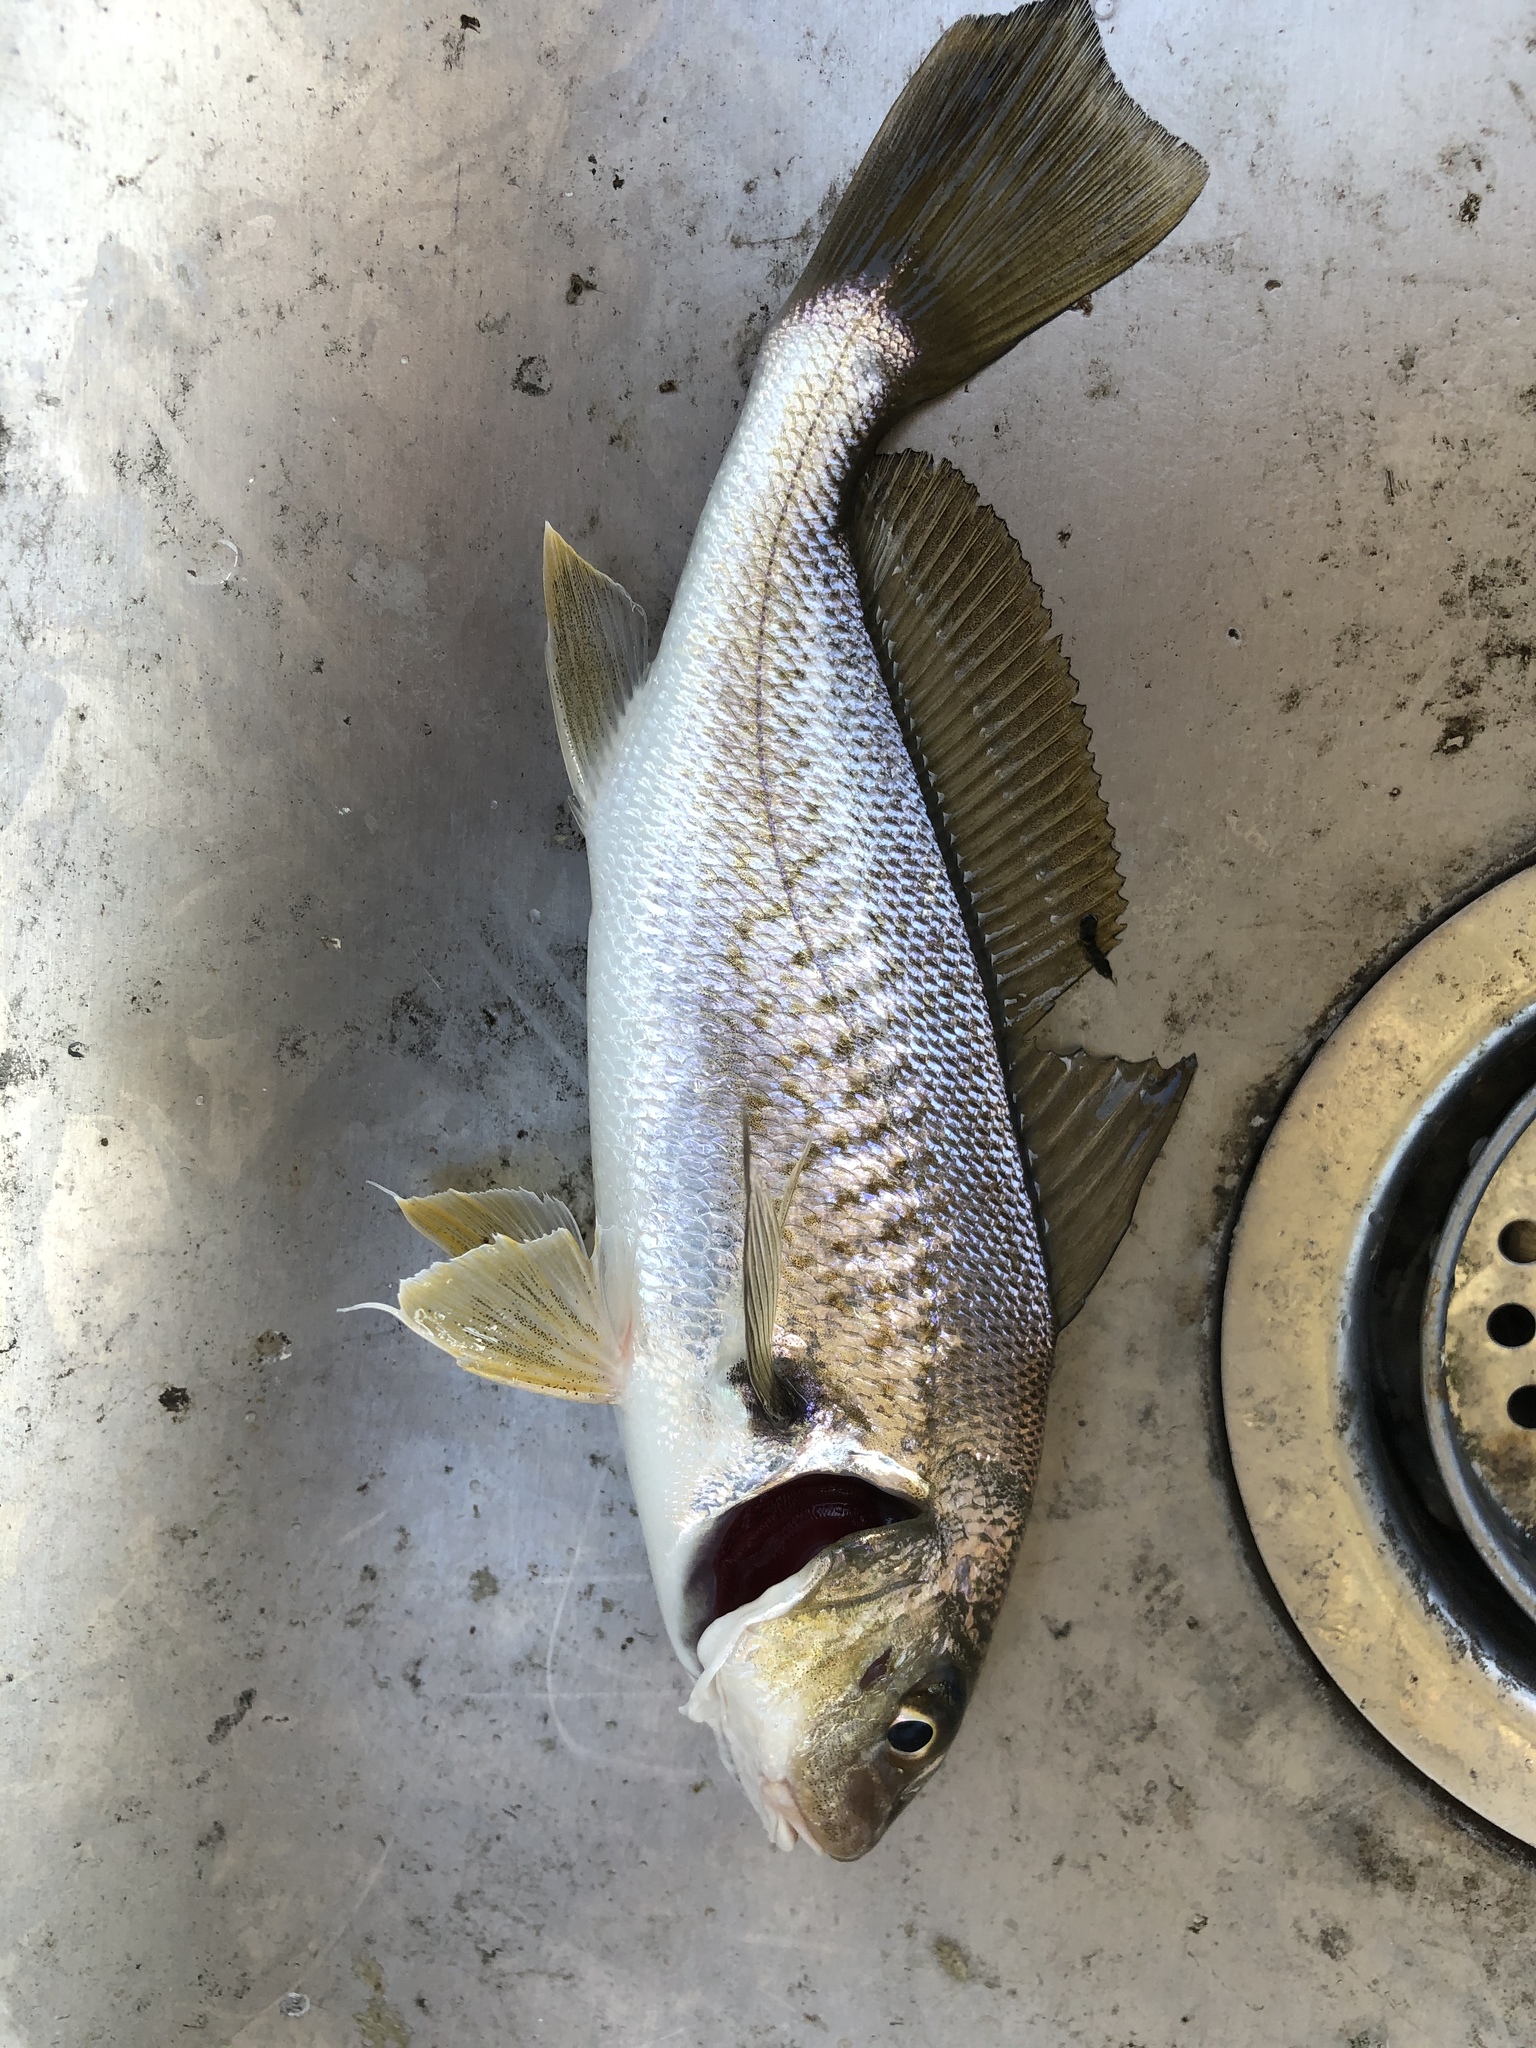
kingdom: Animalia
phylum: Chordata
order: Perciformes
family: Sciaenidae
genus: Micropogonias
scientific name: Micropogonias undulatus
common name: Atlantic croaker
